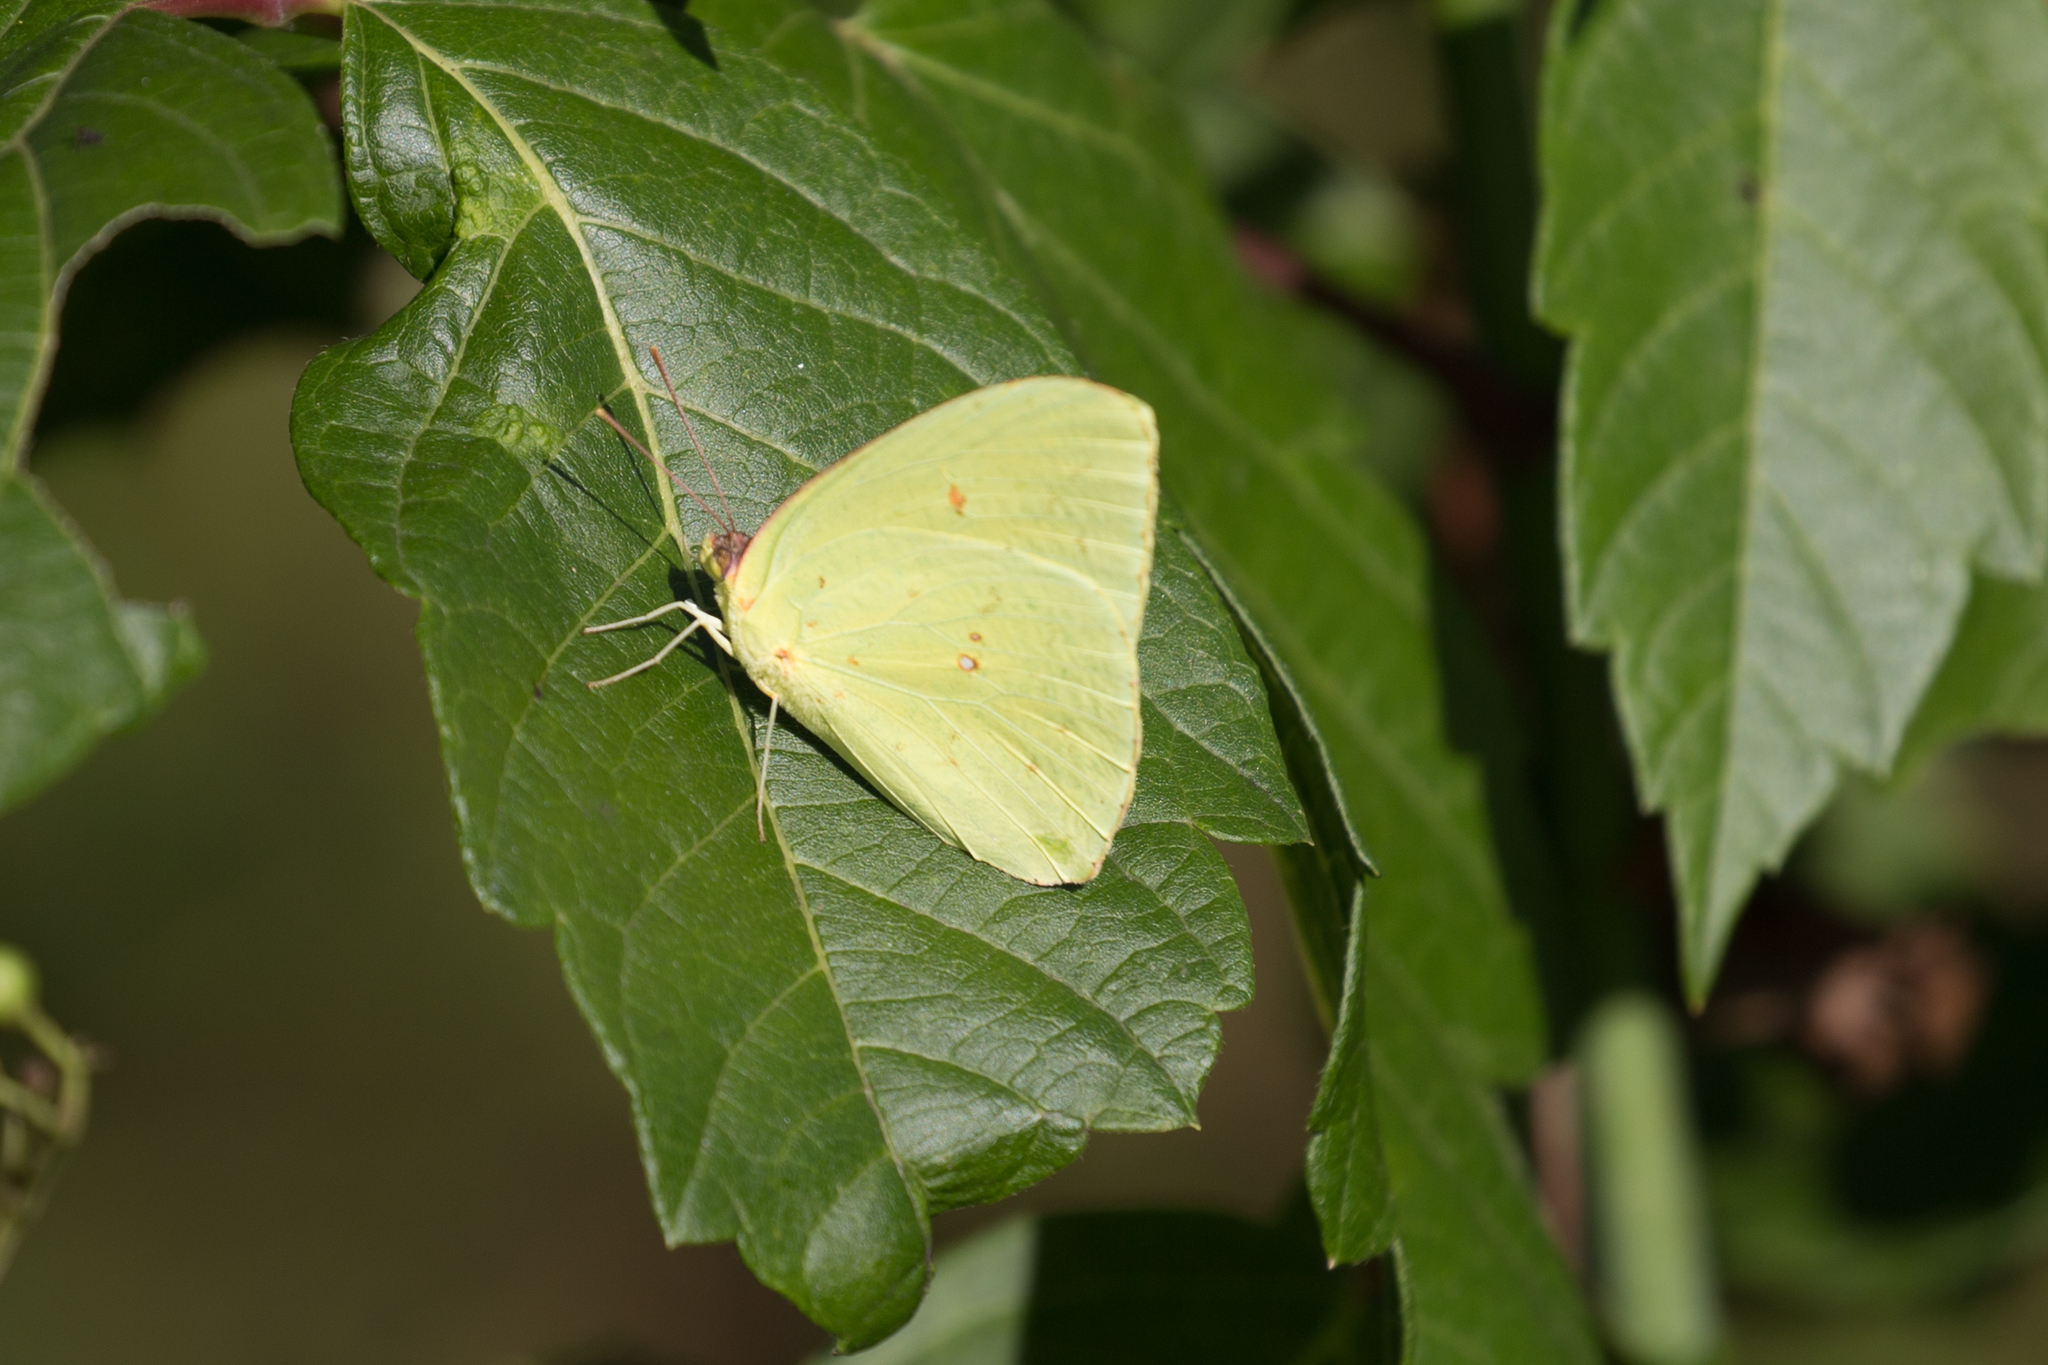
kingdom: Animalia
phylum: Arthropoda
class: Insecta
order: Lepidoptera
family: Pieridae
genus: Phoebis
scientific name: Phoebis sennae
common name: Cloudless sulphur
